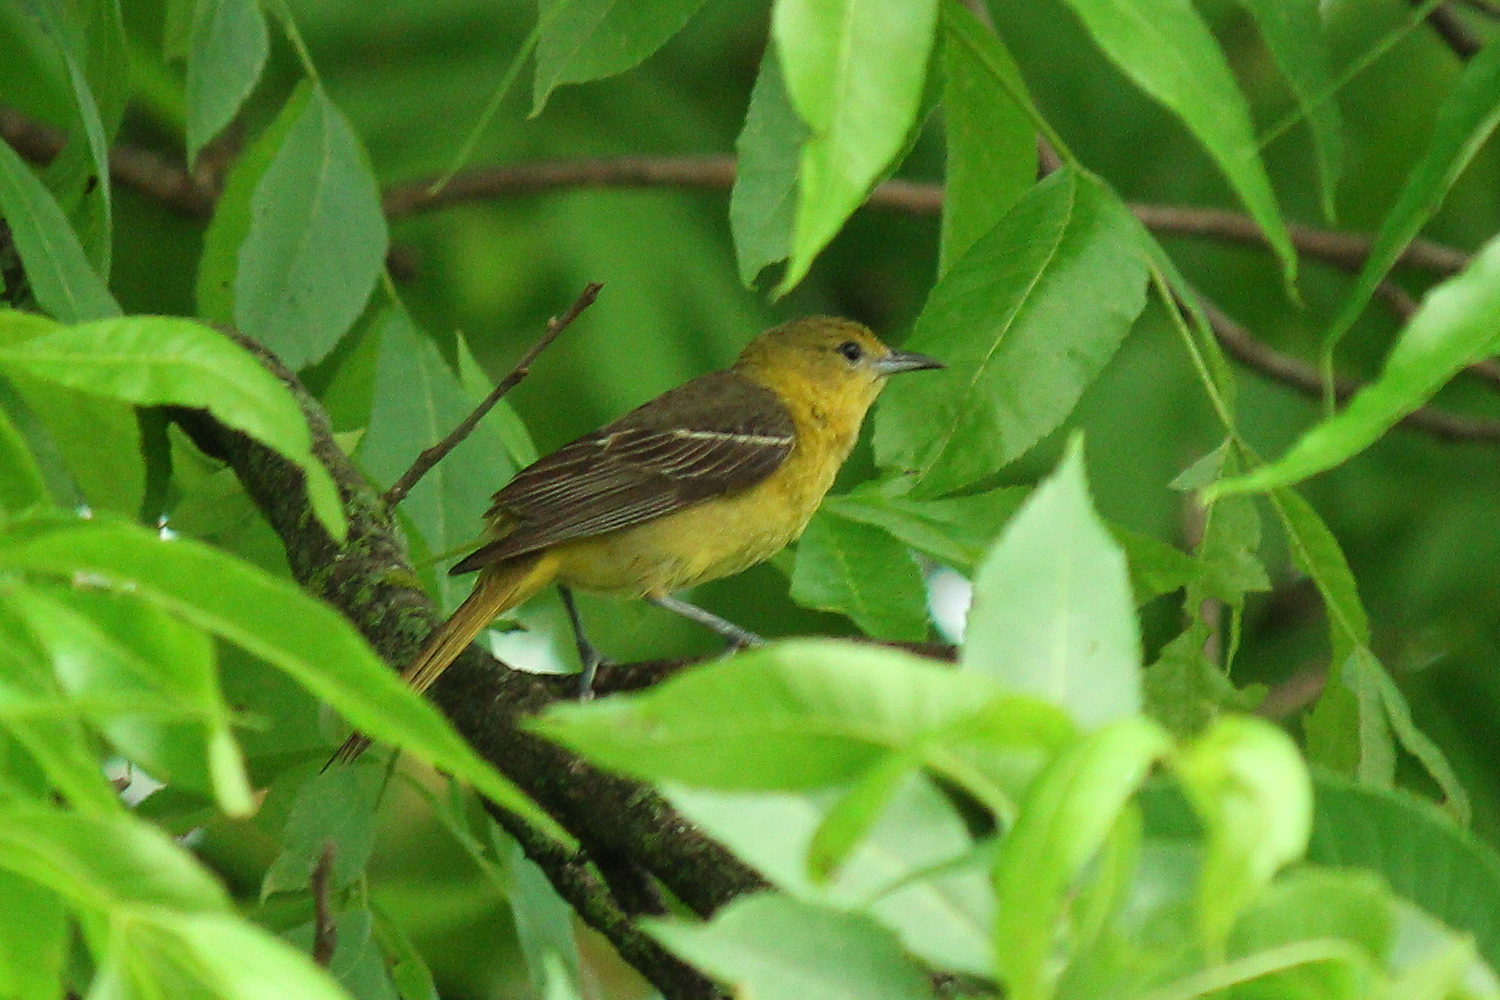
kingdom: Animalia
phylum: Chordata
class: Aves
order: Passeriformes
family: Icteridae
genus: Icterus
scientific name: Icterus spurius
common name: Orchard oriole
